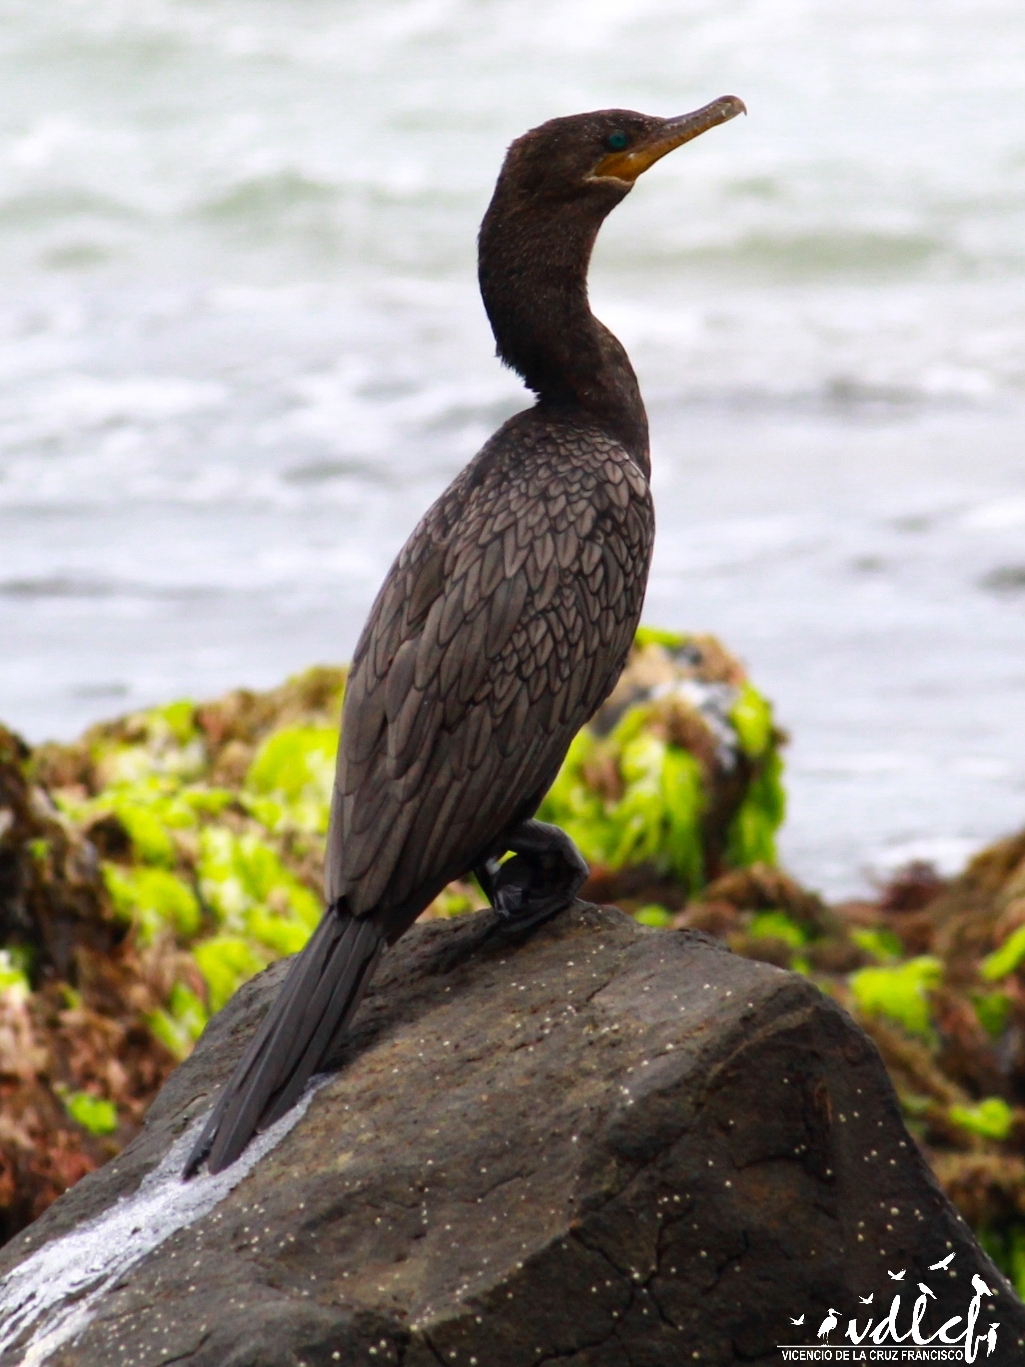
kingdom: Animalia
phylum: Chordata
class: Aves
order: Suliformes
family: Phalacrocoracidae
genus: Phalacrocorax
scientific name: Phalacrocorax brasilianus
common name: Neotropic cormorant
